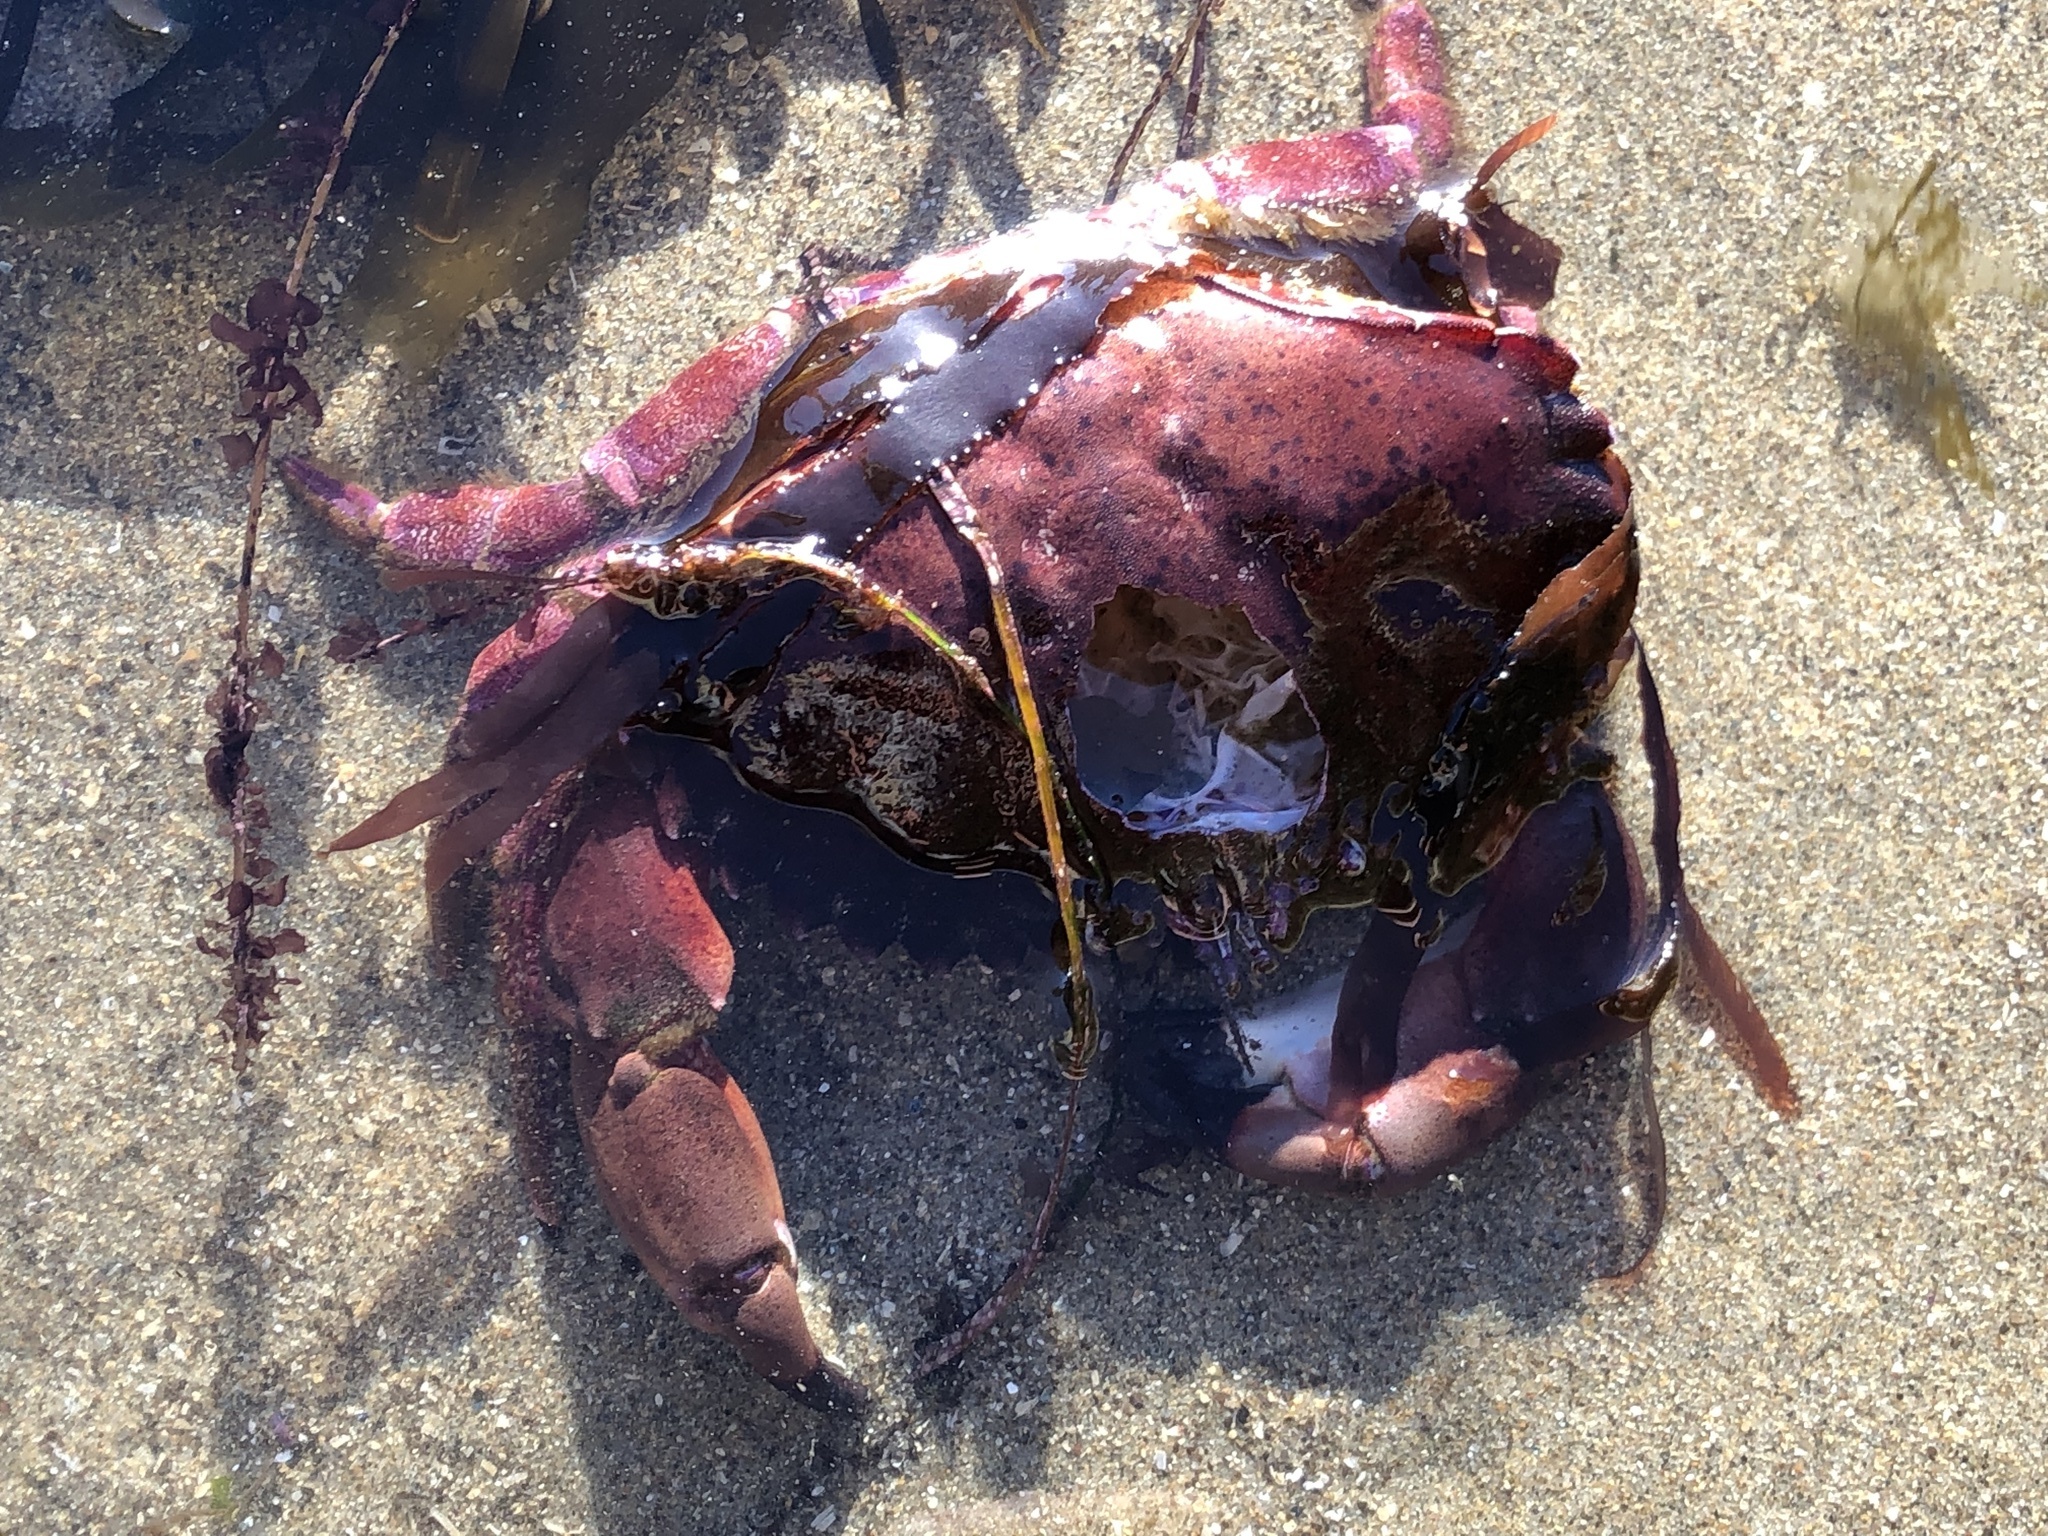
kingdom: Animalia
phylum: Arthropoda
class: Malacostraca
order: Decapoda
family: Cancridae
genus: Romaleon
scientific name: Romaleon antennarium
